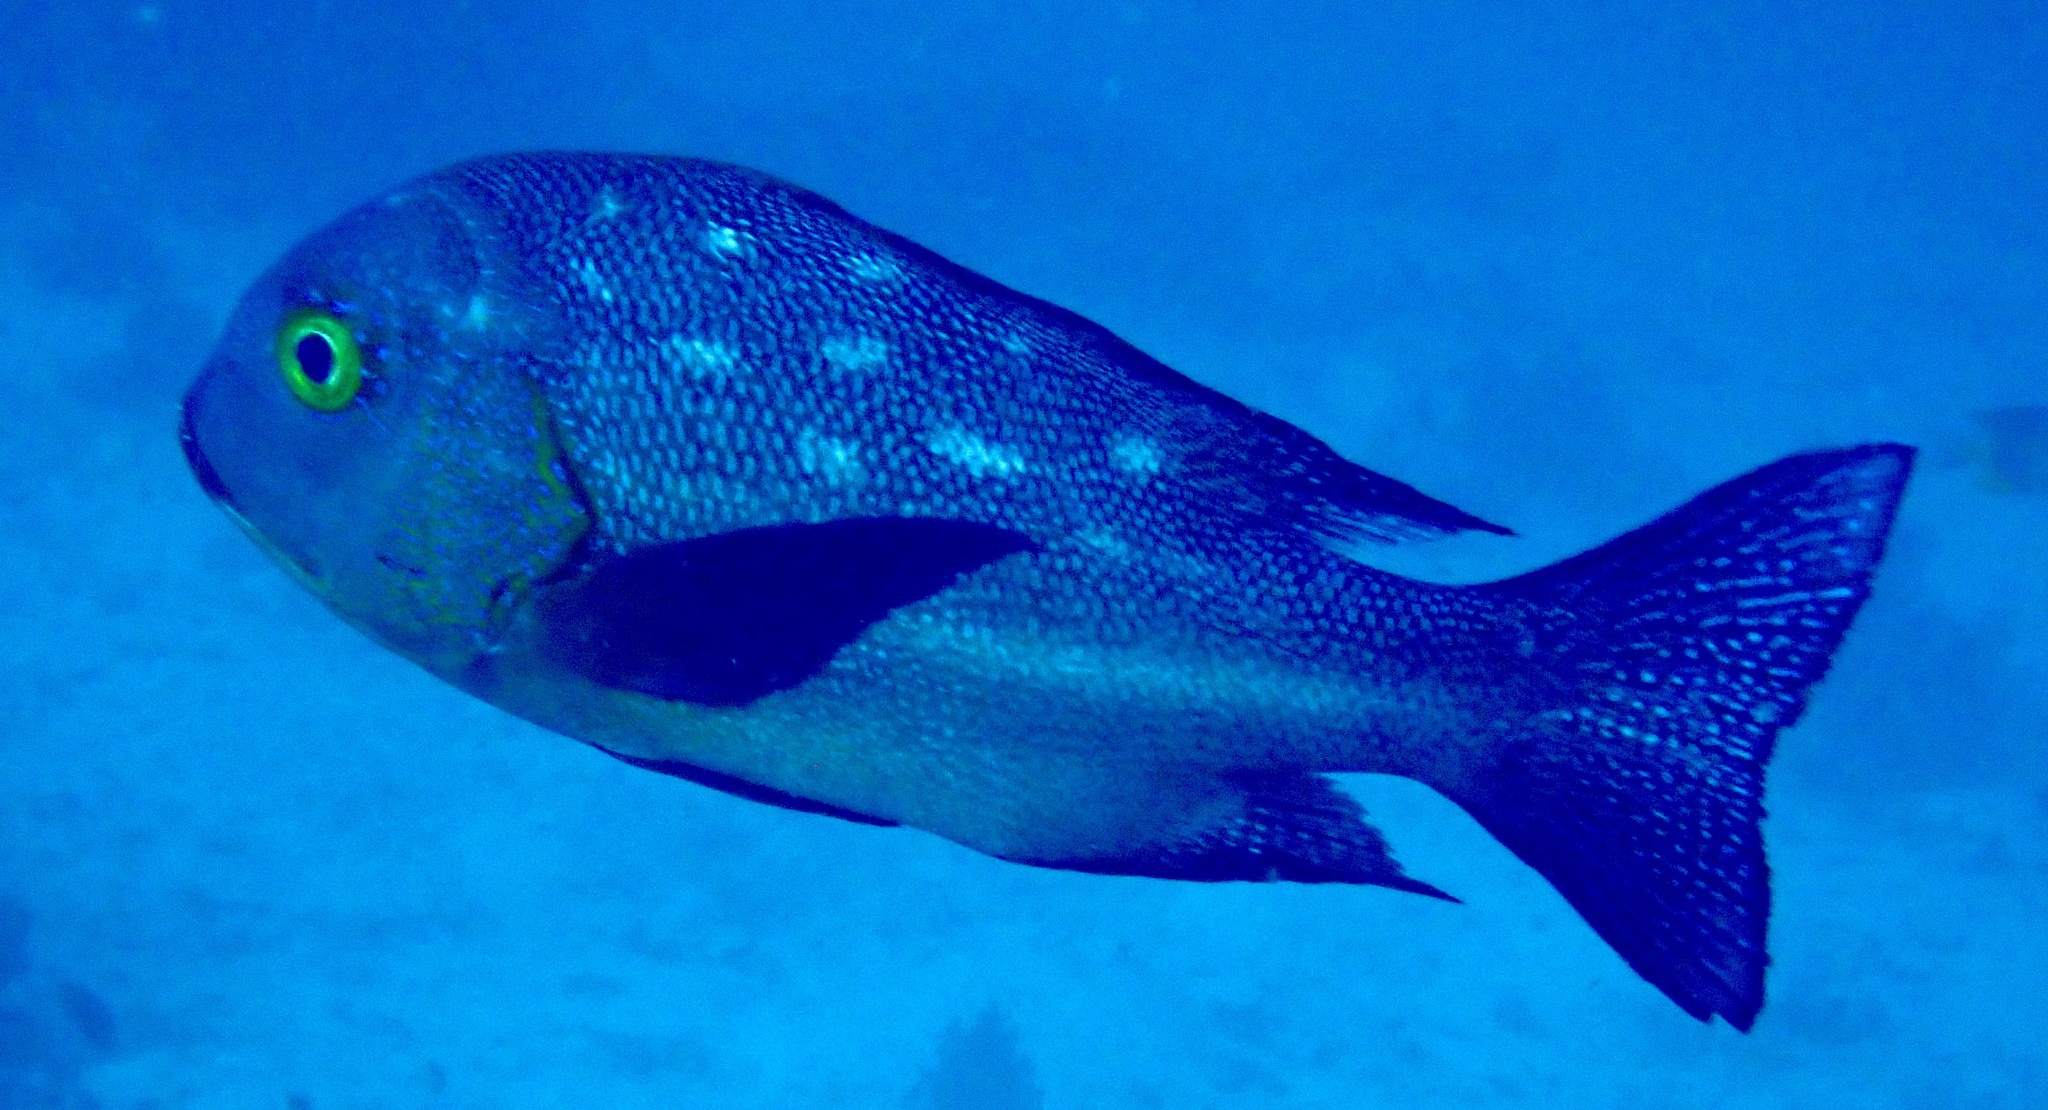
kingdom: Animalia
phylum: Chordata
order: Perciformes
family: Lutjanidae
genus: Macolor
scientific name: Macolor macularis
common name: Midnight snapper
